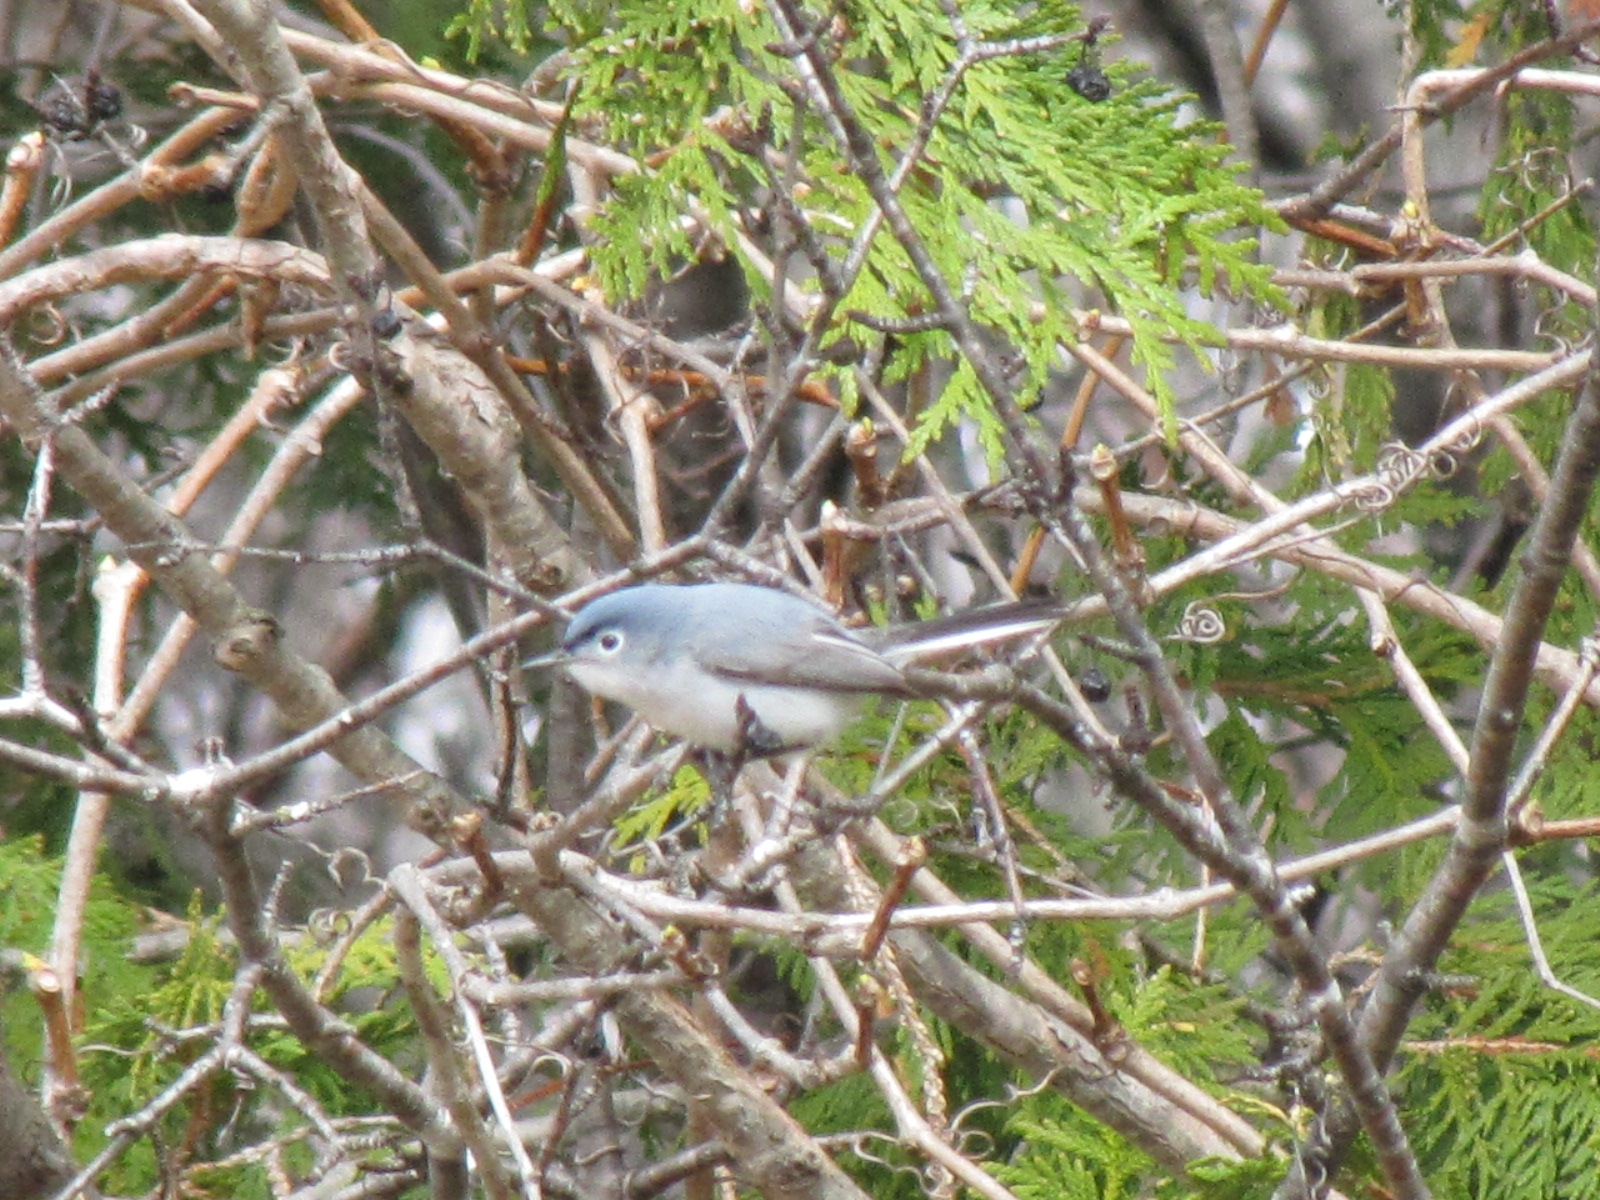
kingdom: Animalia
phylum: Chordata
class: Aves
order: Passeriformes
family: Polioptilidae
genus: Polioptila
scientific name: Polioptila caerulea
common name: Blue-gray gnatcatcher
